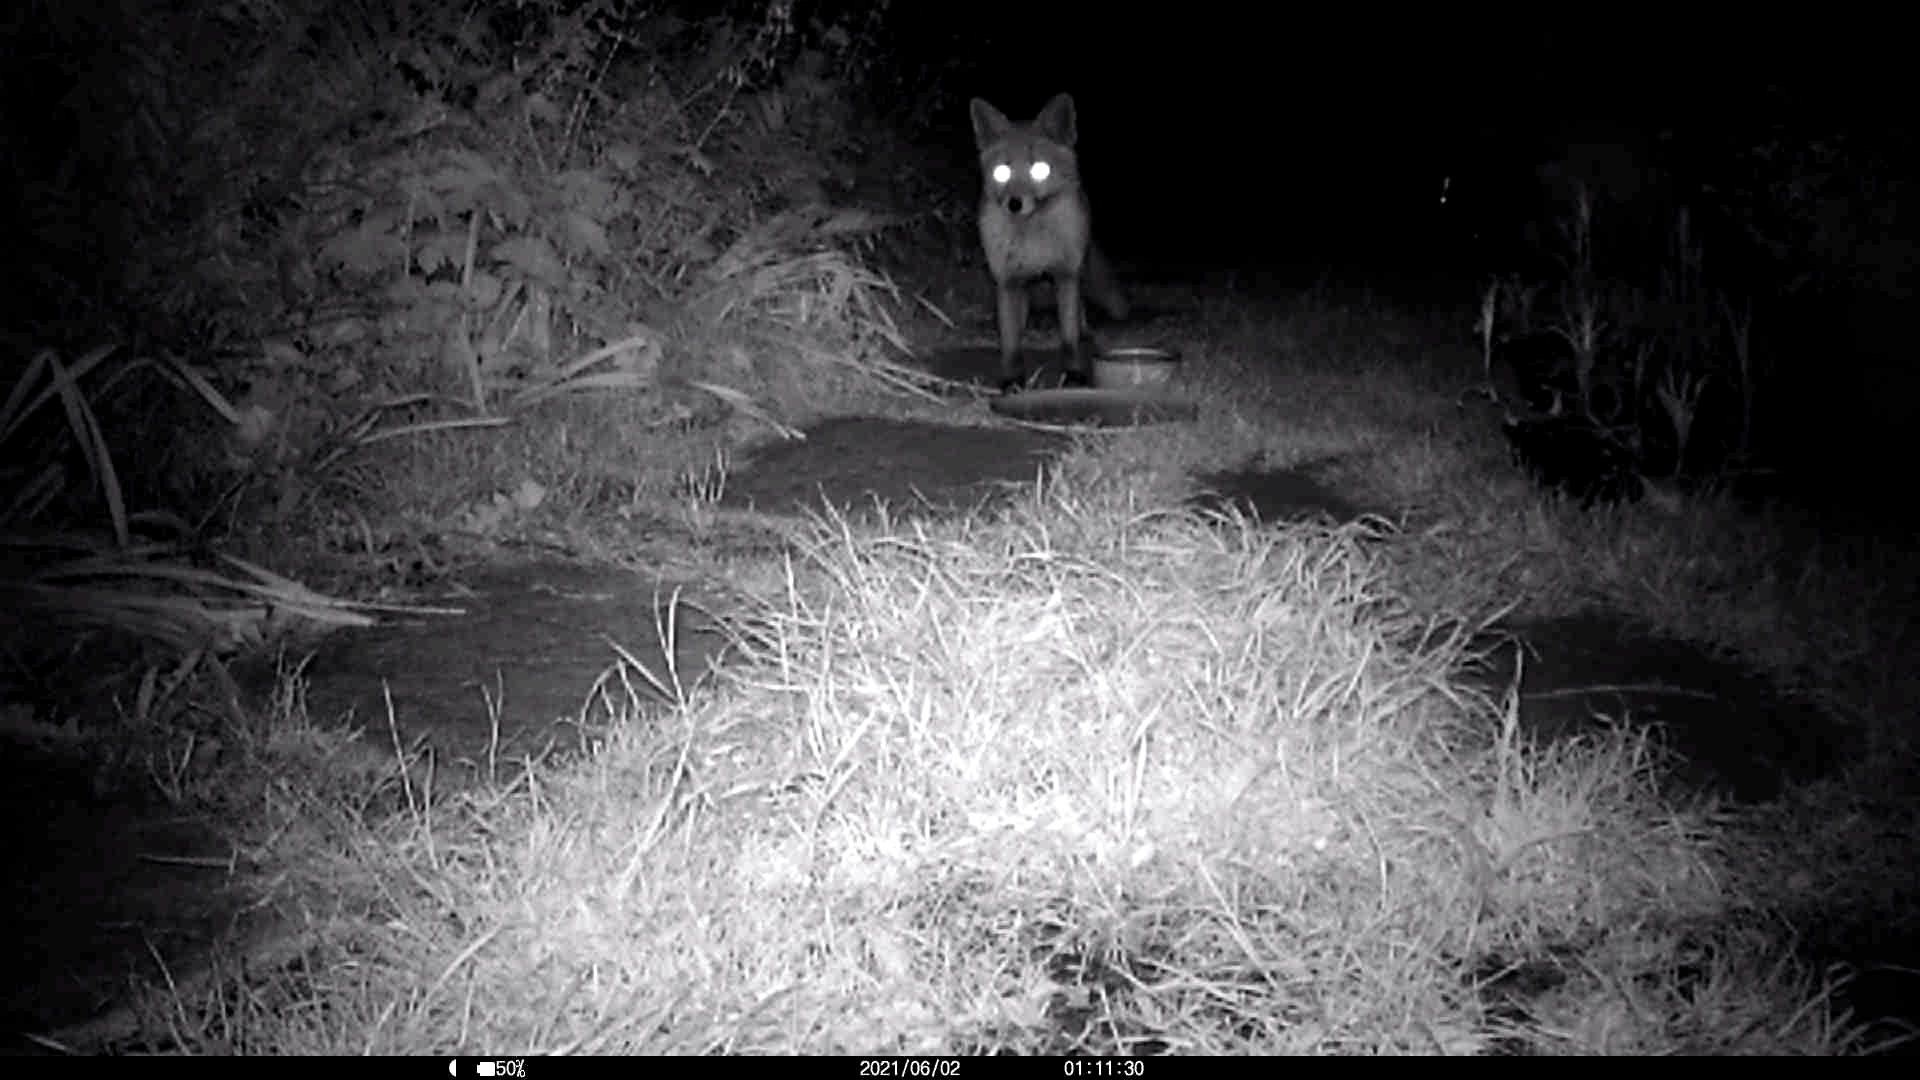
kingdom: Animalia
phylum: Chordata
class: Mammalia
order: Carnivora
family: Canidae
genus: Vulpes
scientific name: Vulpes vulpes
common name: Red fox
